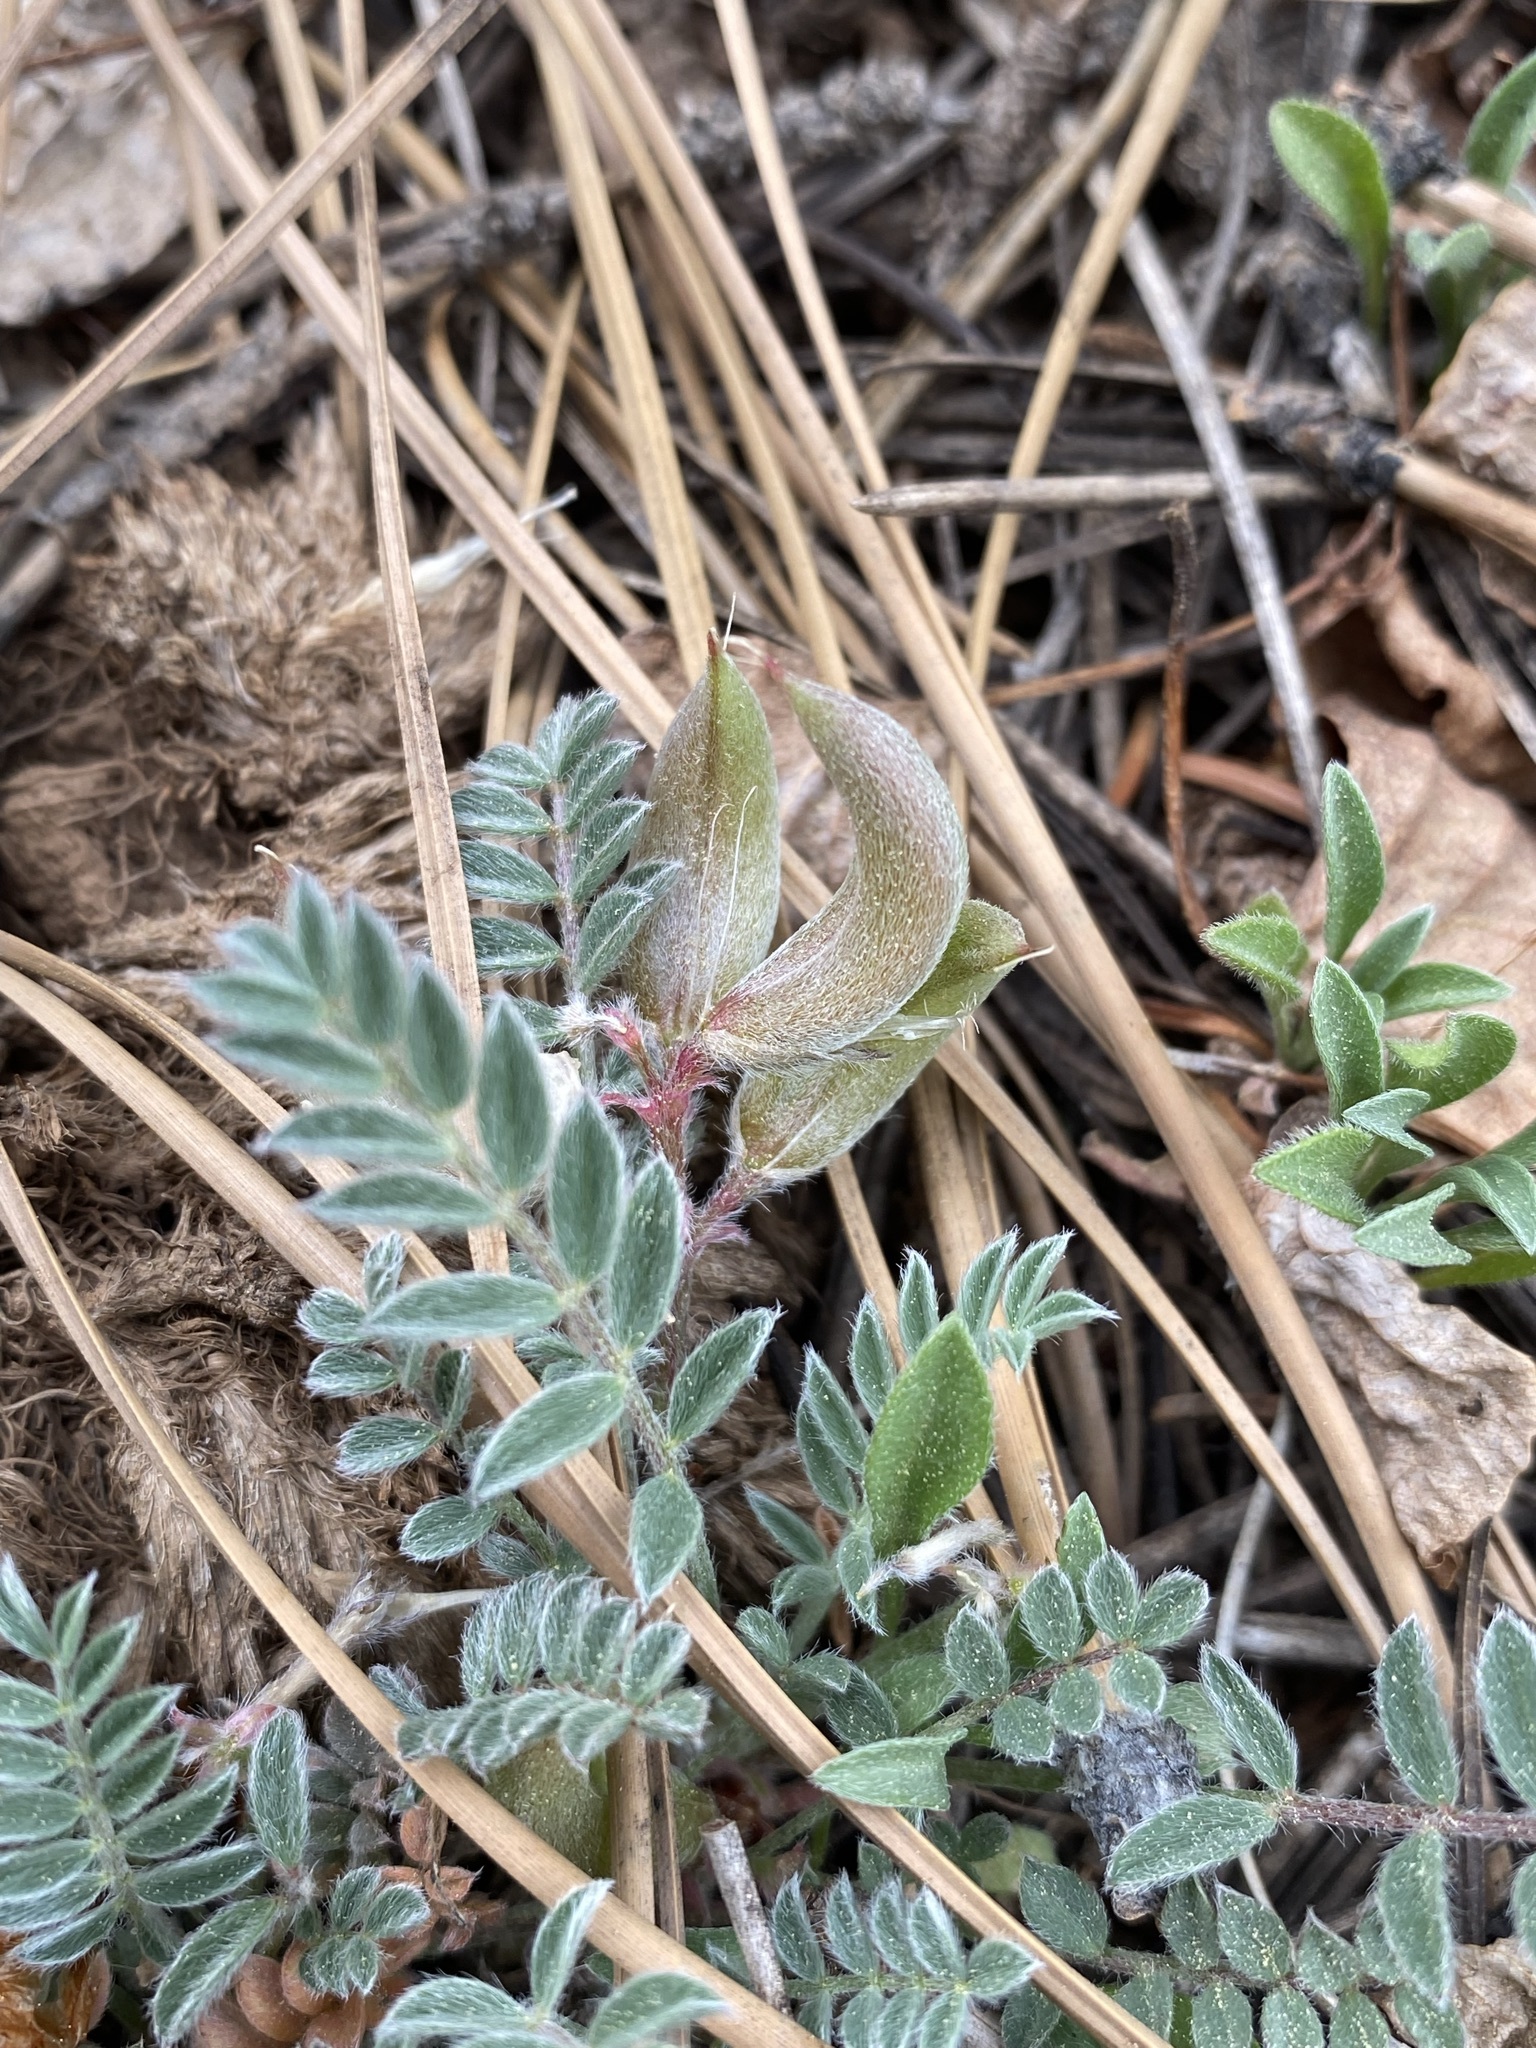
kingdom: Plantae
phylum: Tracheophyta
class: Magnoliopsida
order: Fabales
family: Fabaceae
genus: Astragalus
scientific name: Astragalus argophyllus
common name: Silverleaf milk-vetch
